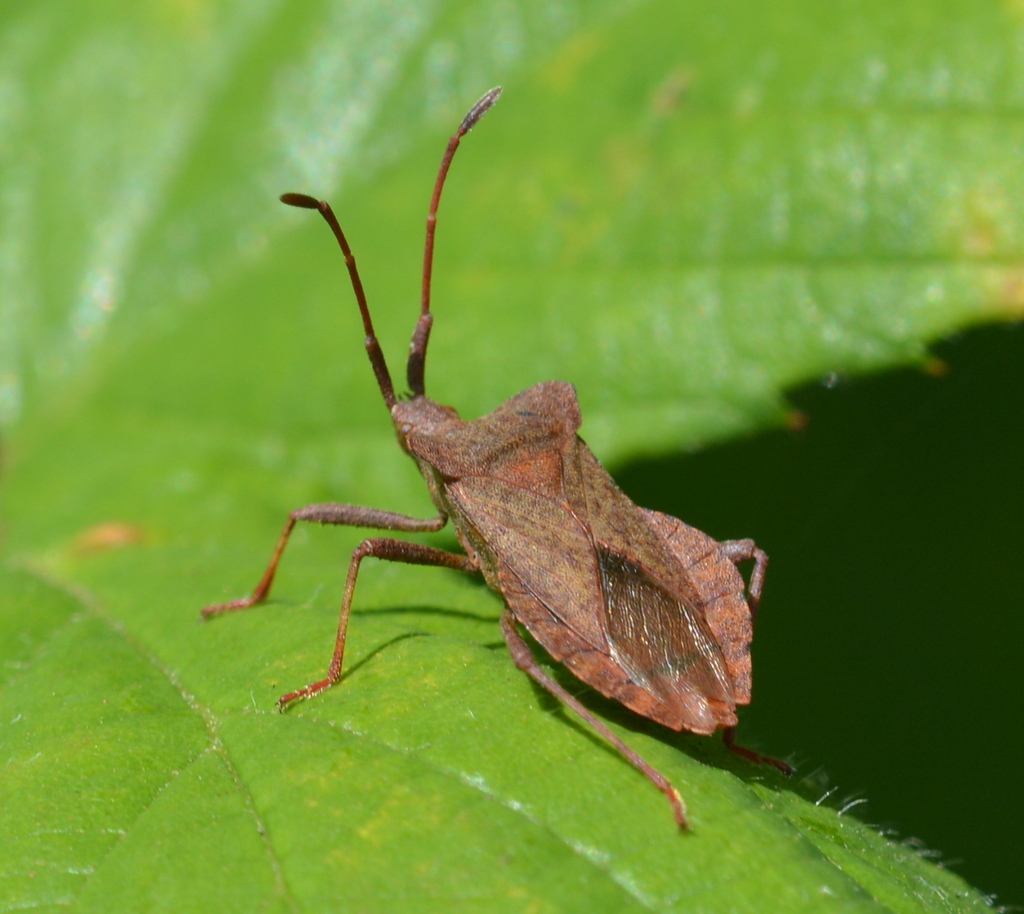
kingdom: Animalia
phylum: Arthropoda
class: Insecta
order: Hemiptera
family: Coreidae
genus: Coreus
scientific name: Coreus marginatus
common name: Dock bug
